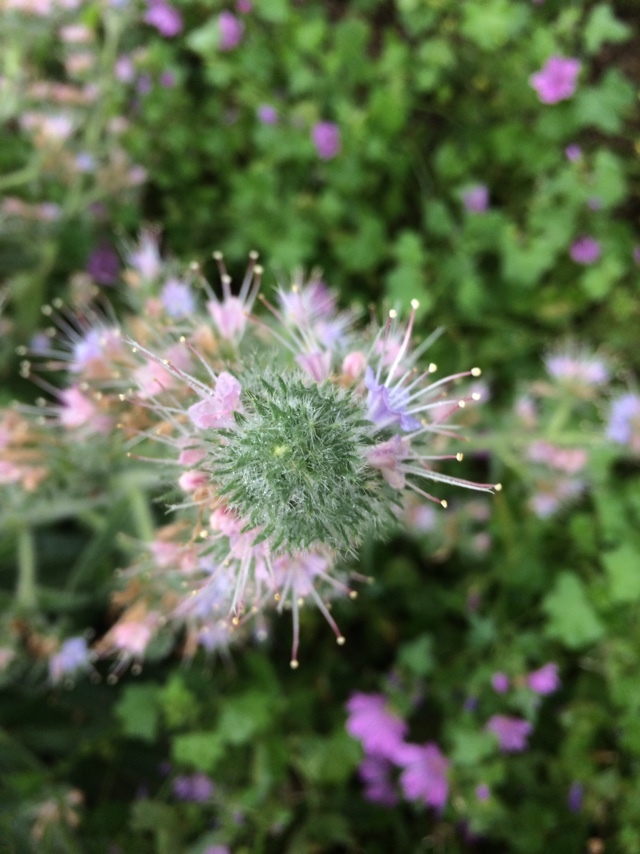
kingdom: Plantae
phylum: Tracheophyta
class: Magnoliopsida
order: Boraginales
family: Boraginaceae
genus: Echium
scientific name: Echium italicum
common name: Italian viper's bugloss
